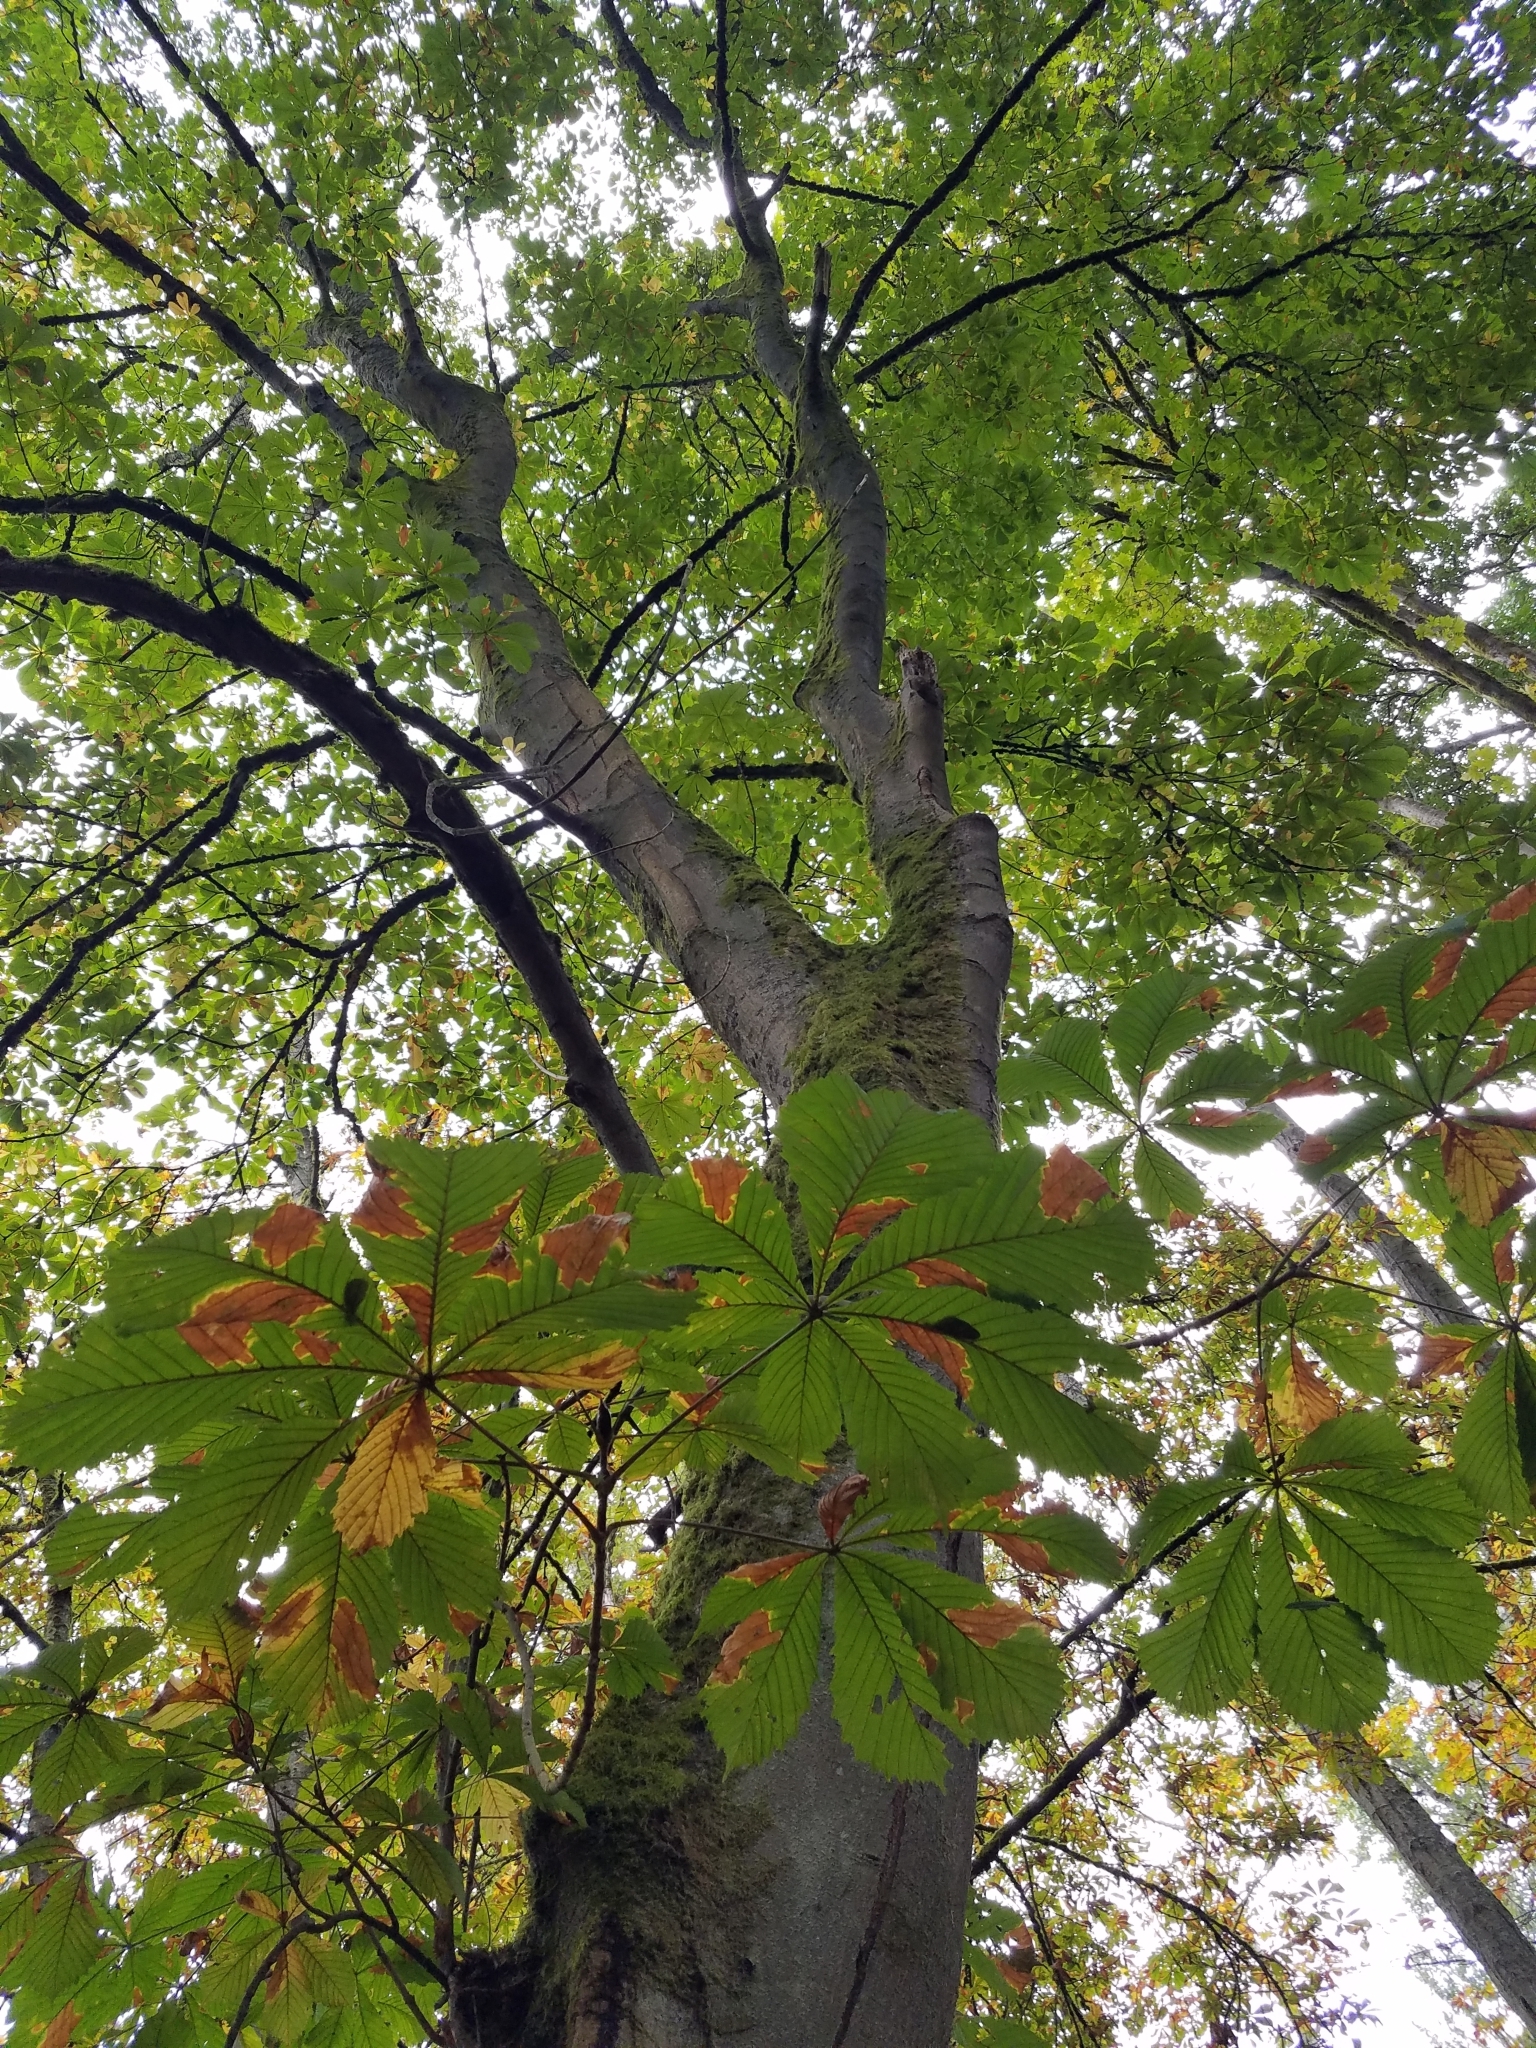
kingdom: Plantae
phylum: Tracheophyta
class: Magnoliopsida
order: Sapindales
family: Sapindaceae
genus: Aesculus
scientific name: Aesculus hippocastanum
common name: Horse-chestnut
